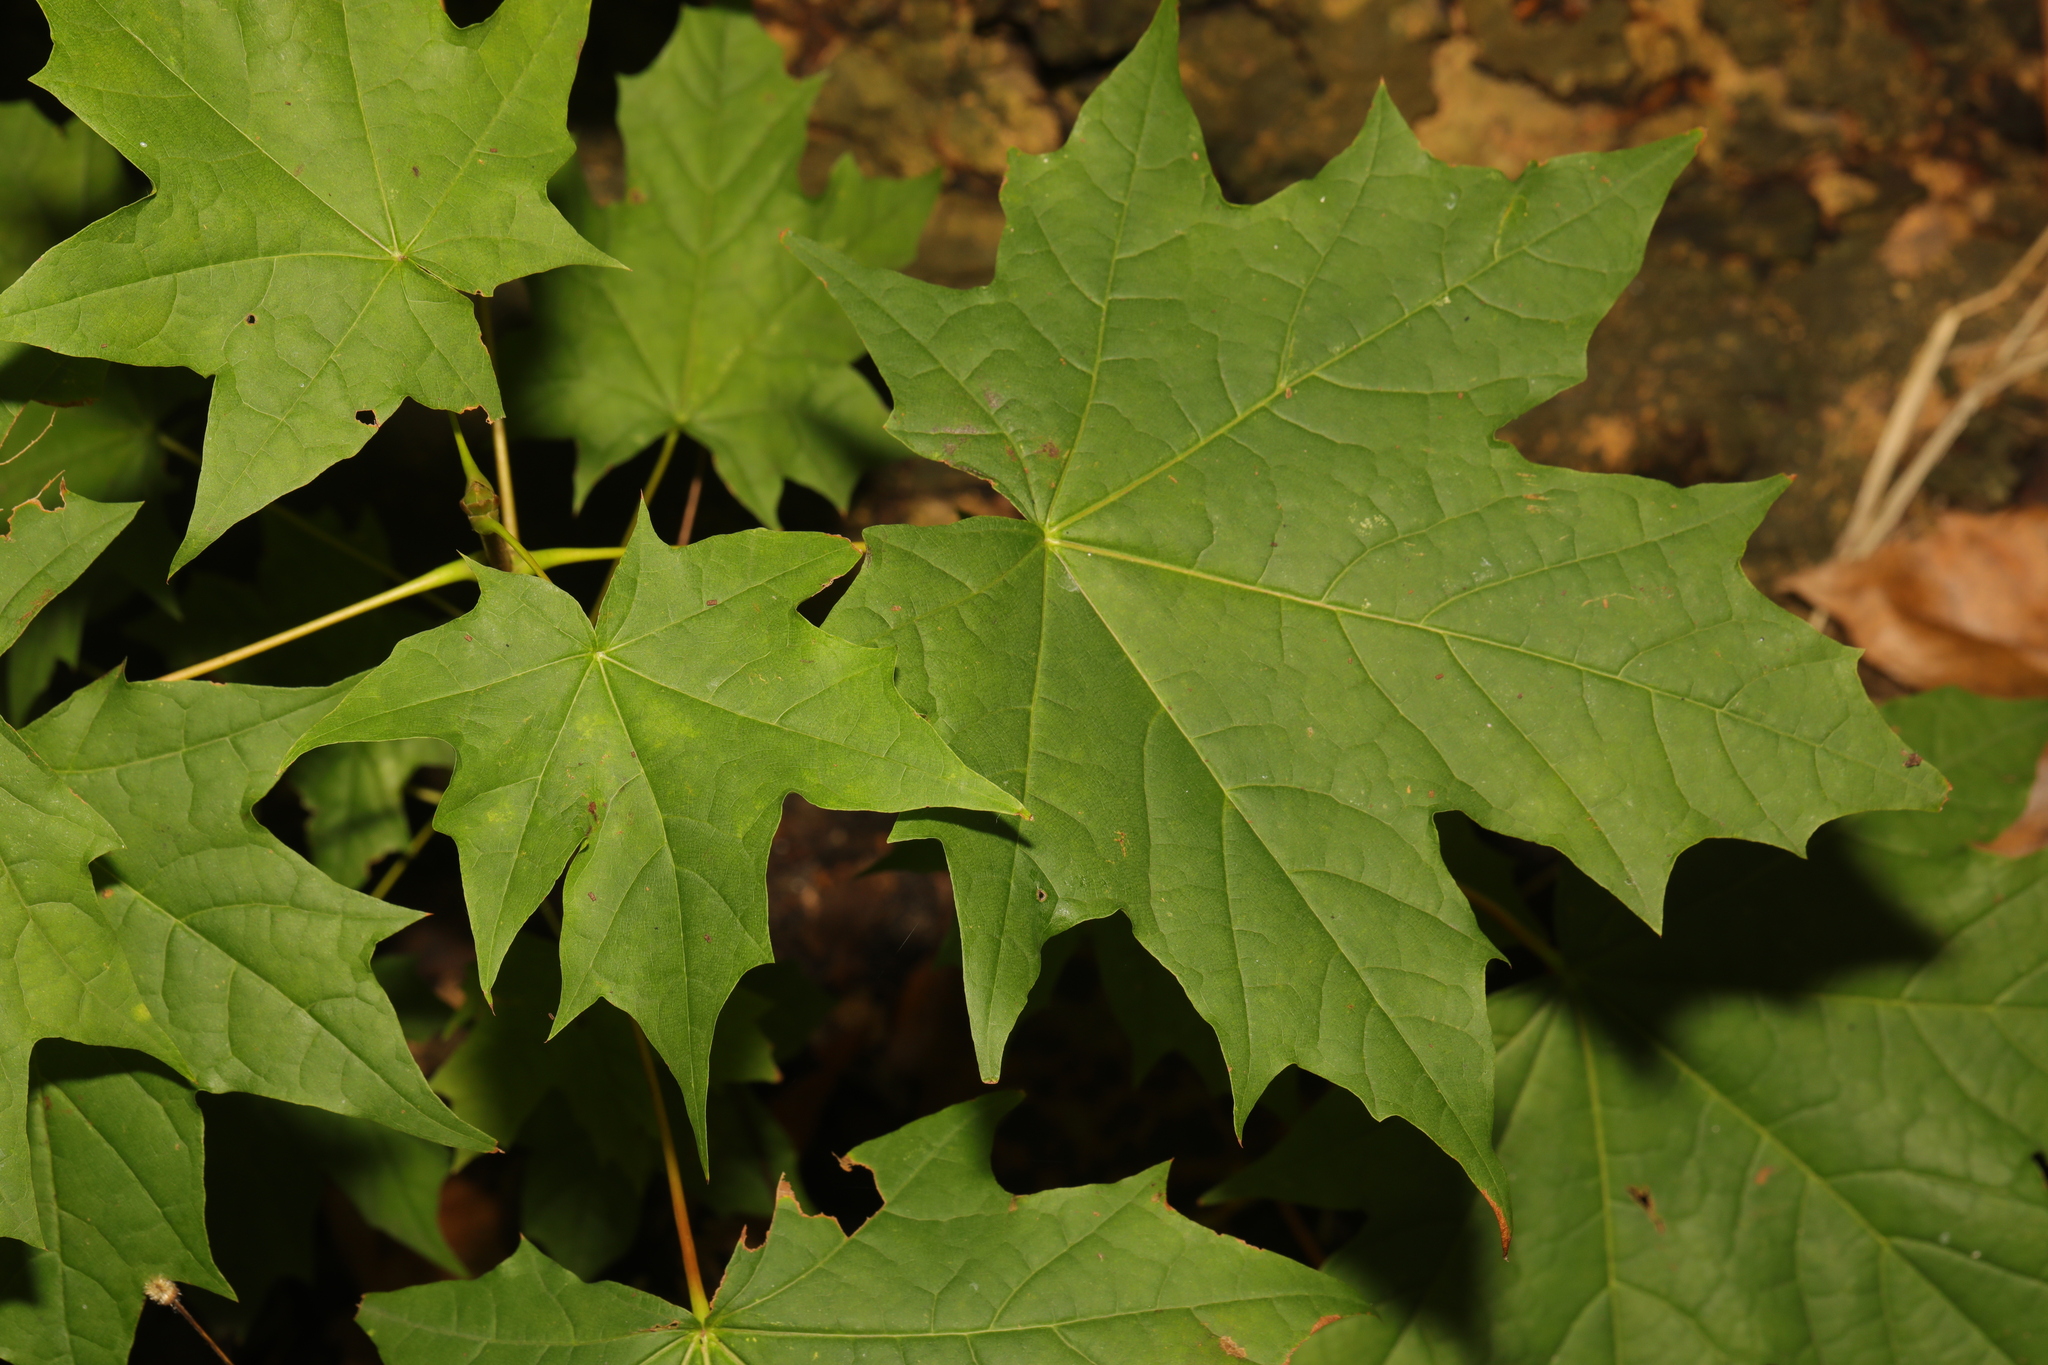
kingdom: Plantae
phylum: Tracheophyta
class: Magnoliopsida
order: Sapindales
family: Sapindaceae
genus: Acer
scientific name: Acer platanoides
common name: Norway maple
